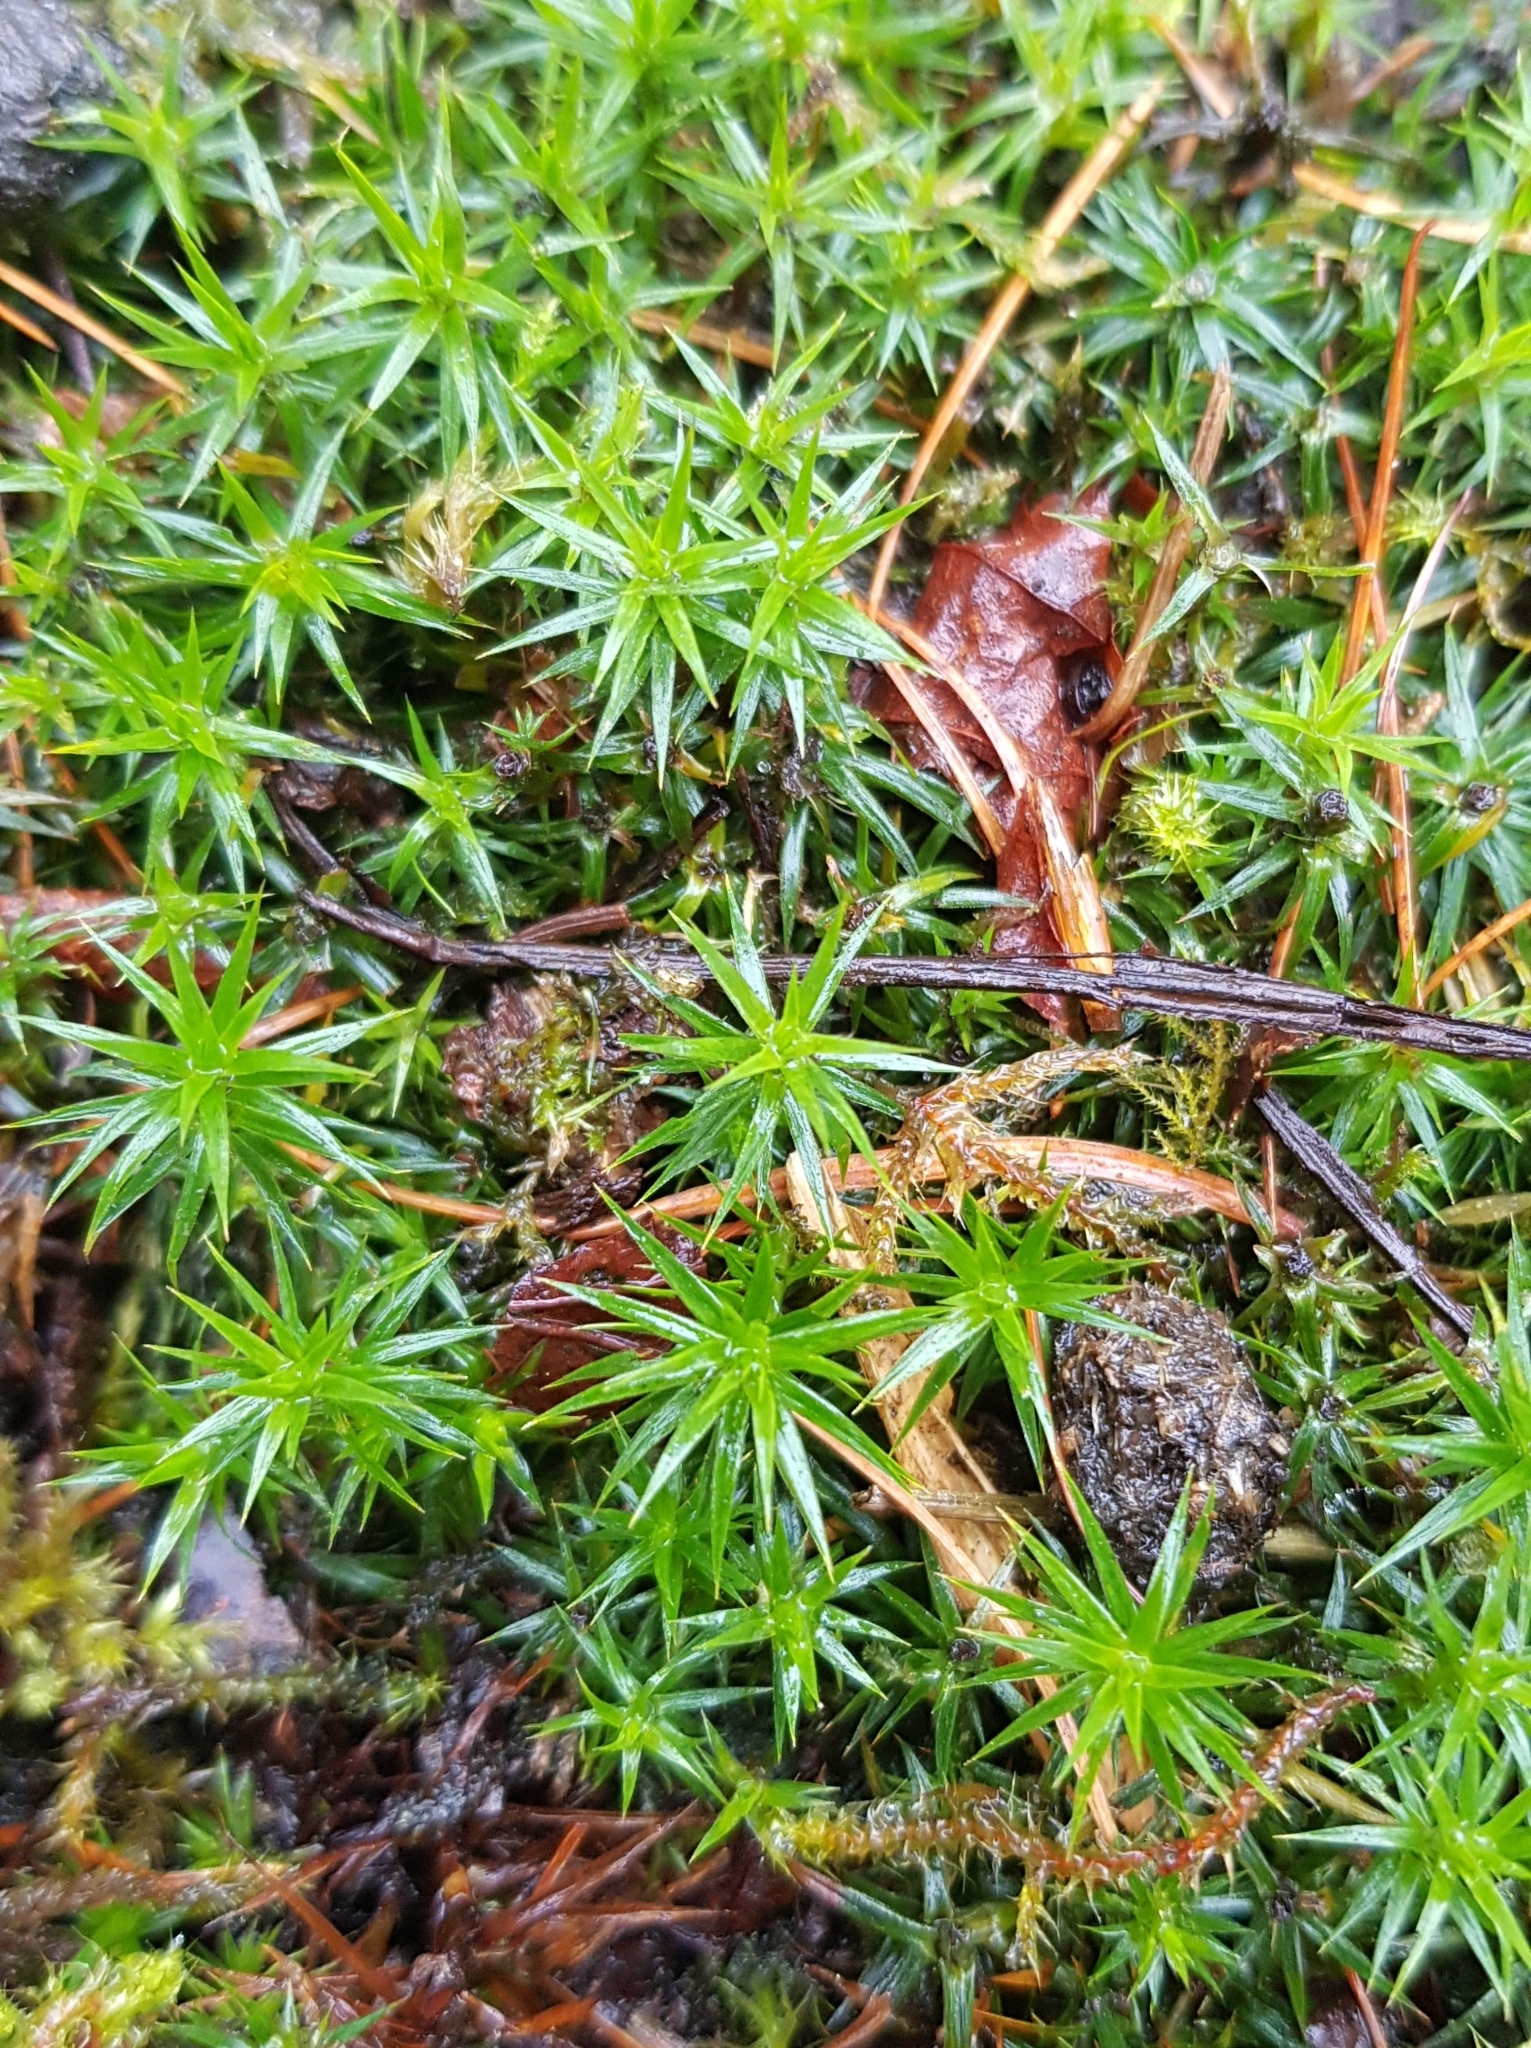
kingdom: Plantae
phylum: Bryophyta
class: Polytrichopsida
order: Polytrichales
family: Polytrichaceae
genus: Polytrichum
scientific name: Polytrichum formosum
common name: Bank haircap moss
